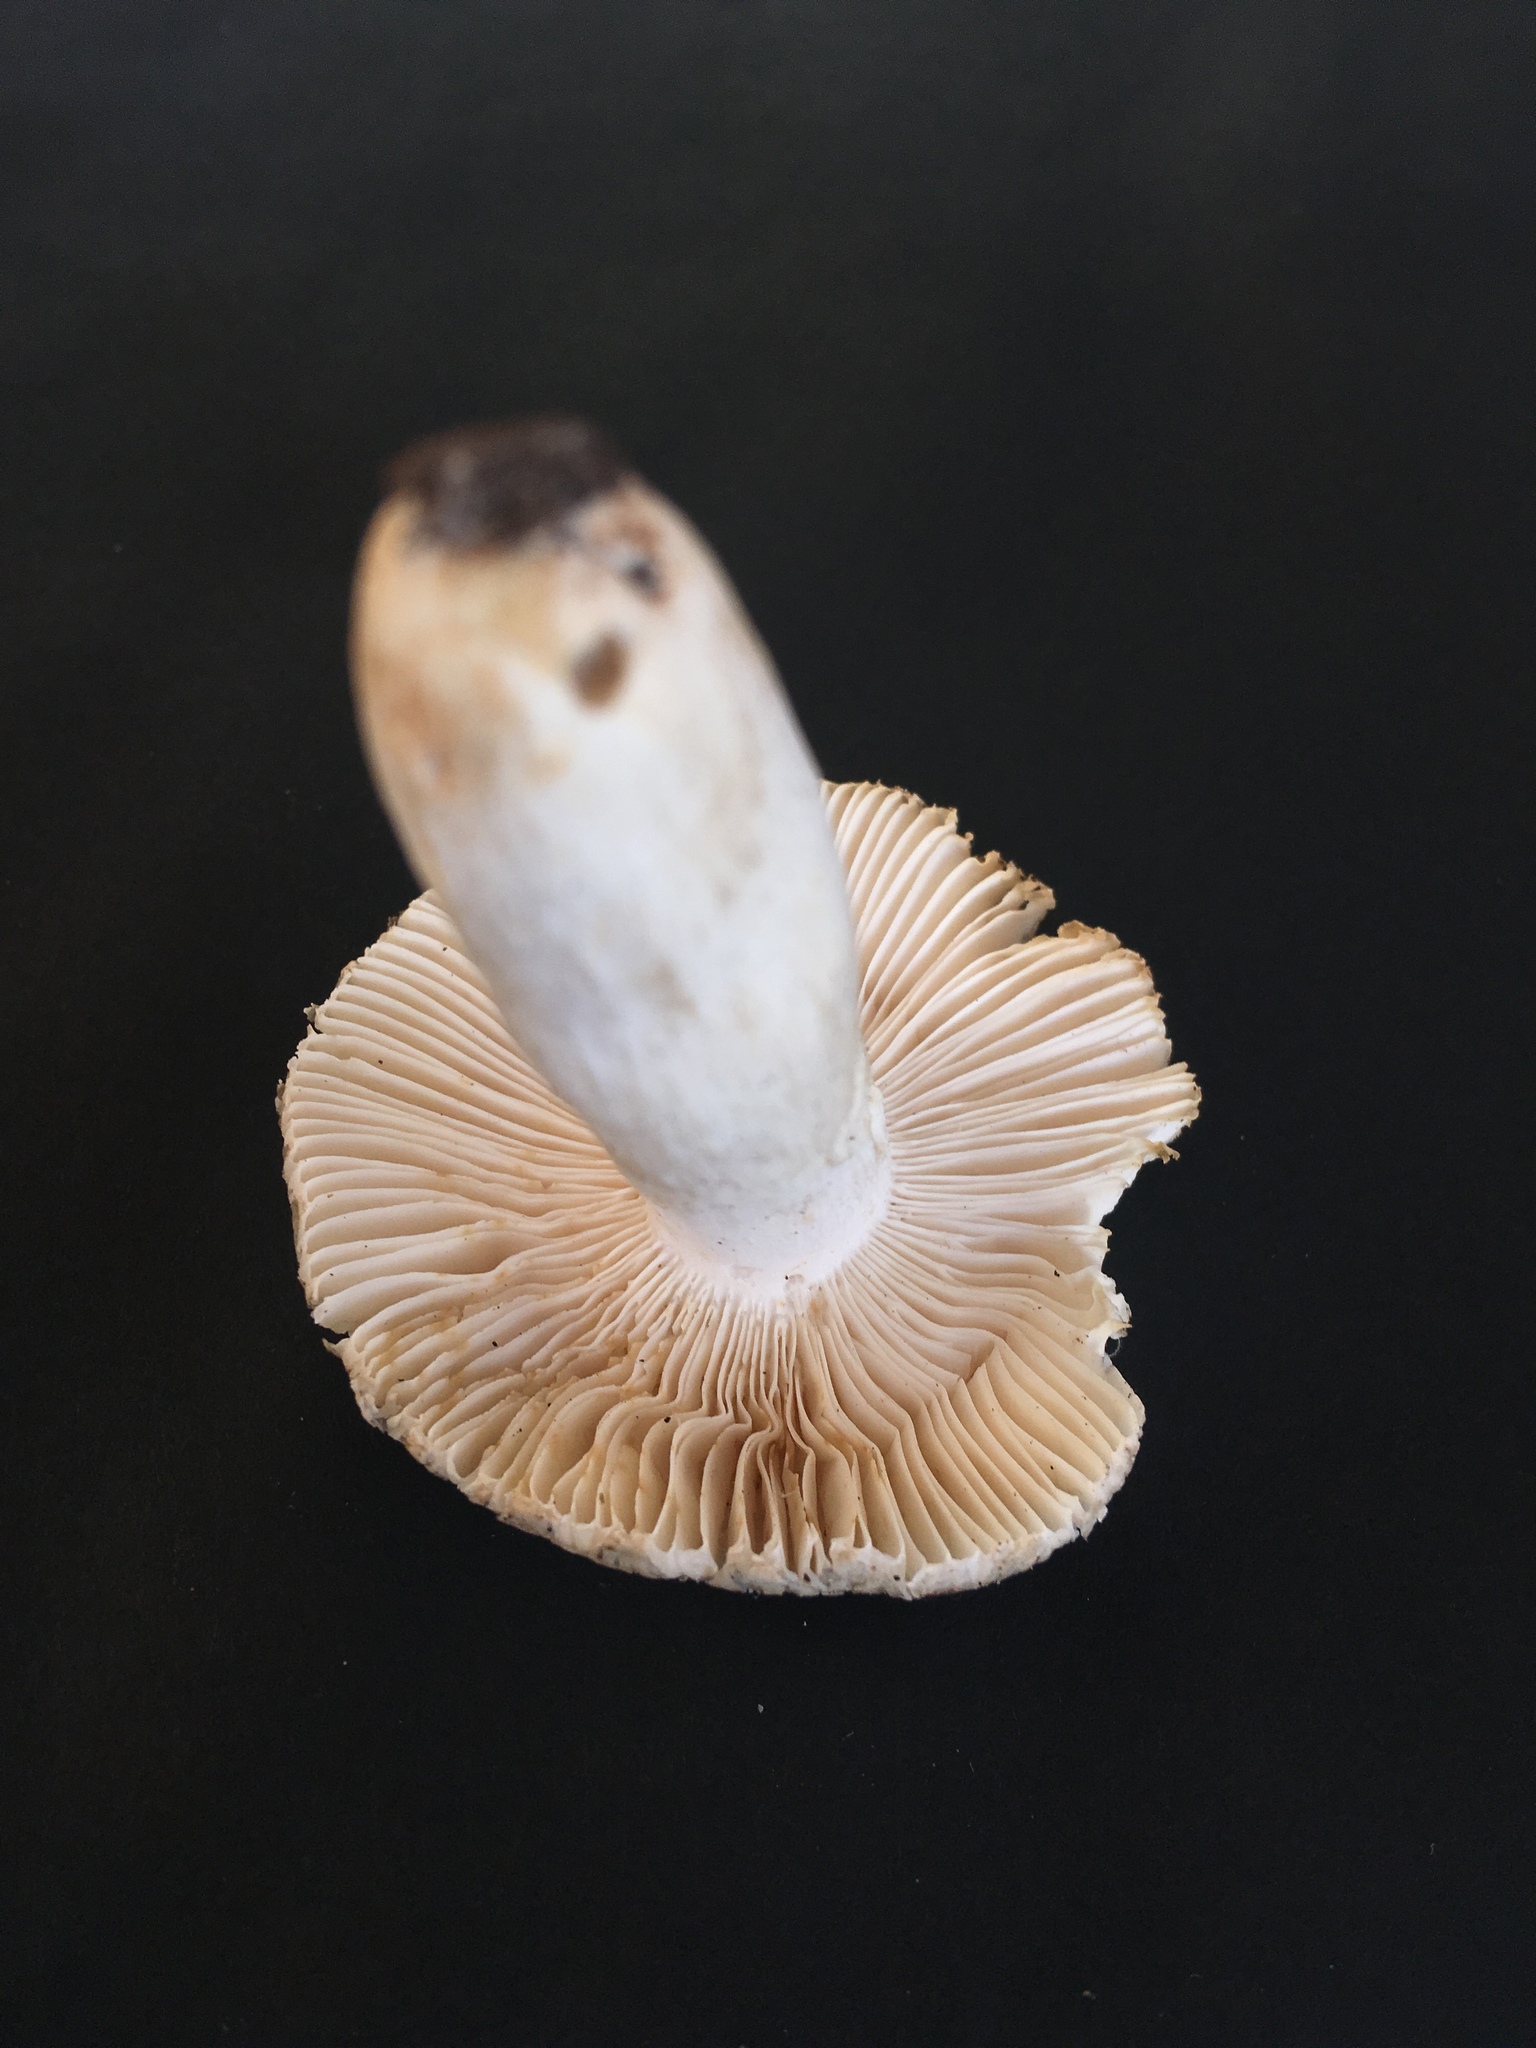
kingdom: Fungi
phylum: Basidiomycota
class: Agaricomycetes
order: Russulales
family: Russulaceae
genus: Russula
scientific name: Russula crustosa
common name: Green quilt russula
